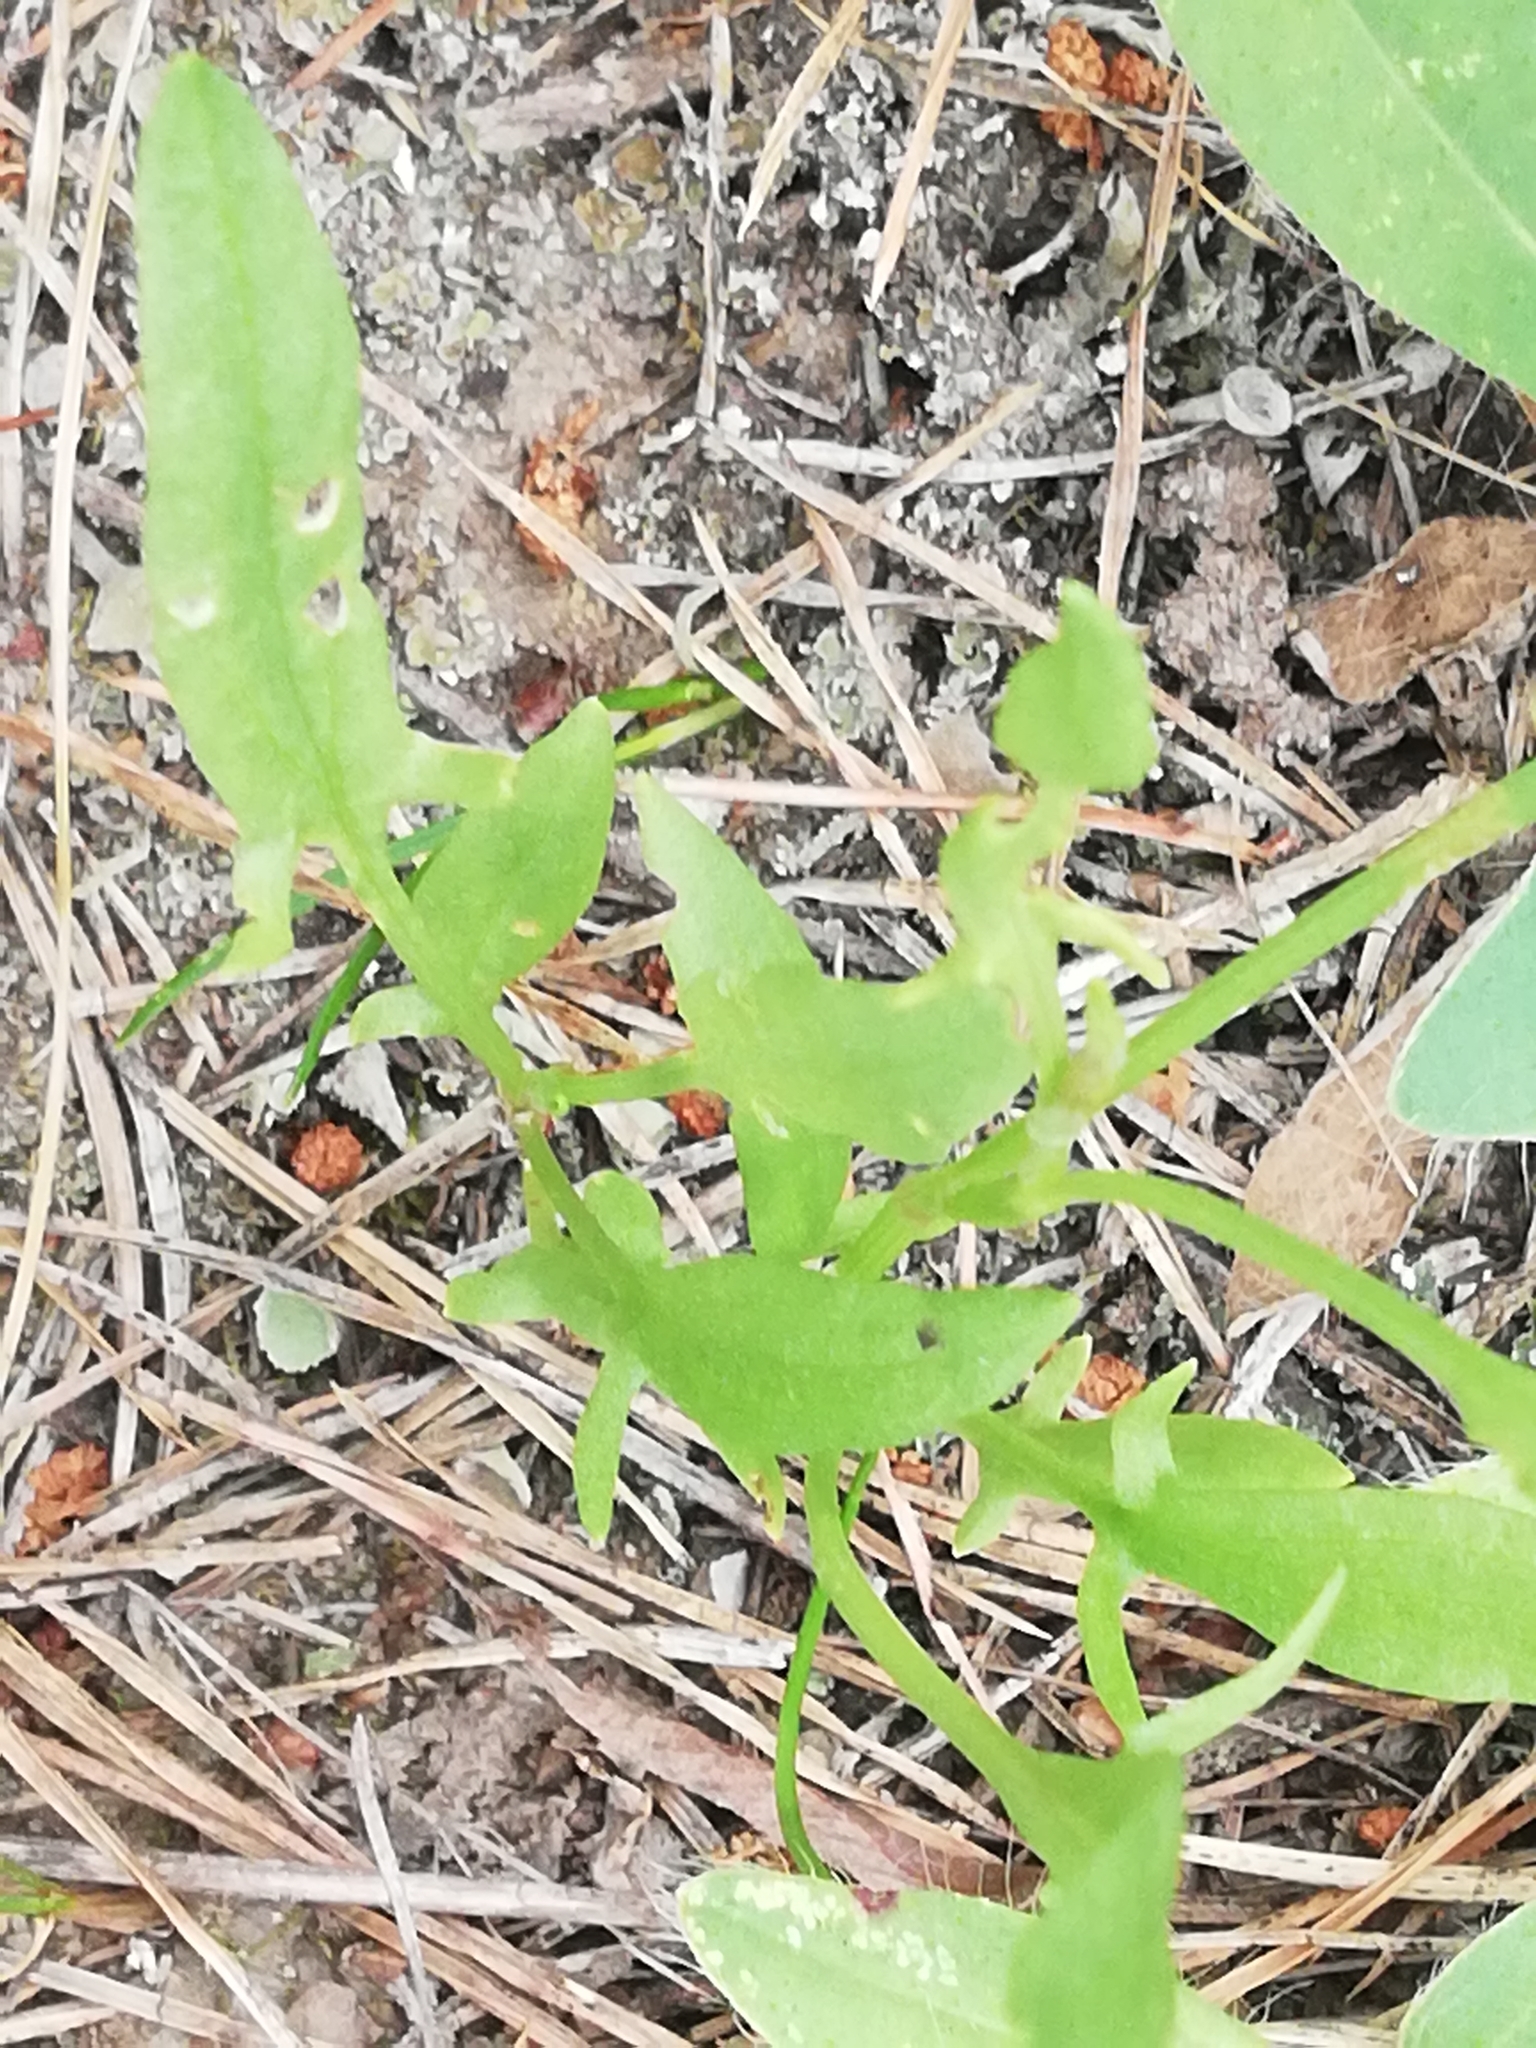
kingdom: Plantae
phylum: Tracheophyta
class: Magnoliopsida
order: Caryophyllales
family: Polygonaceae
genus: Rumex
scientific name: Rumex acetosella
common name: Common sheep sorrel
